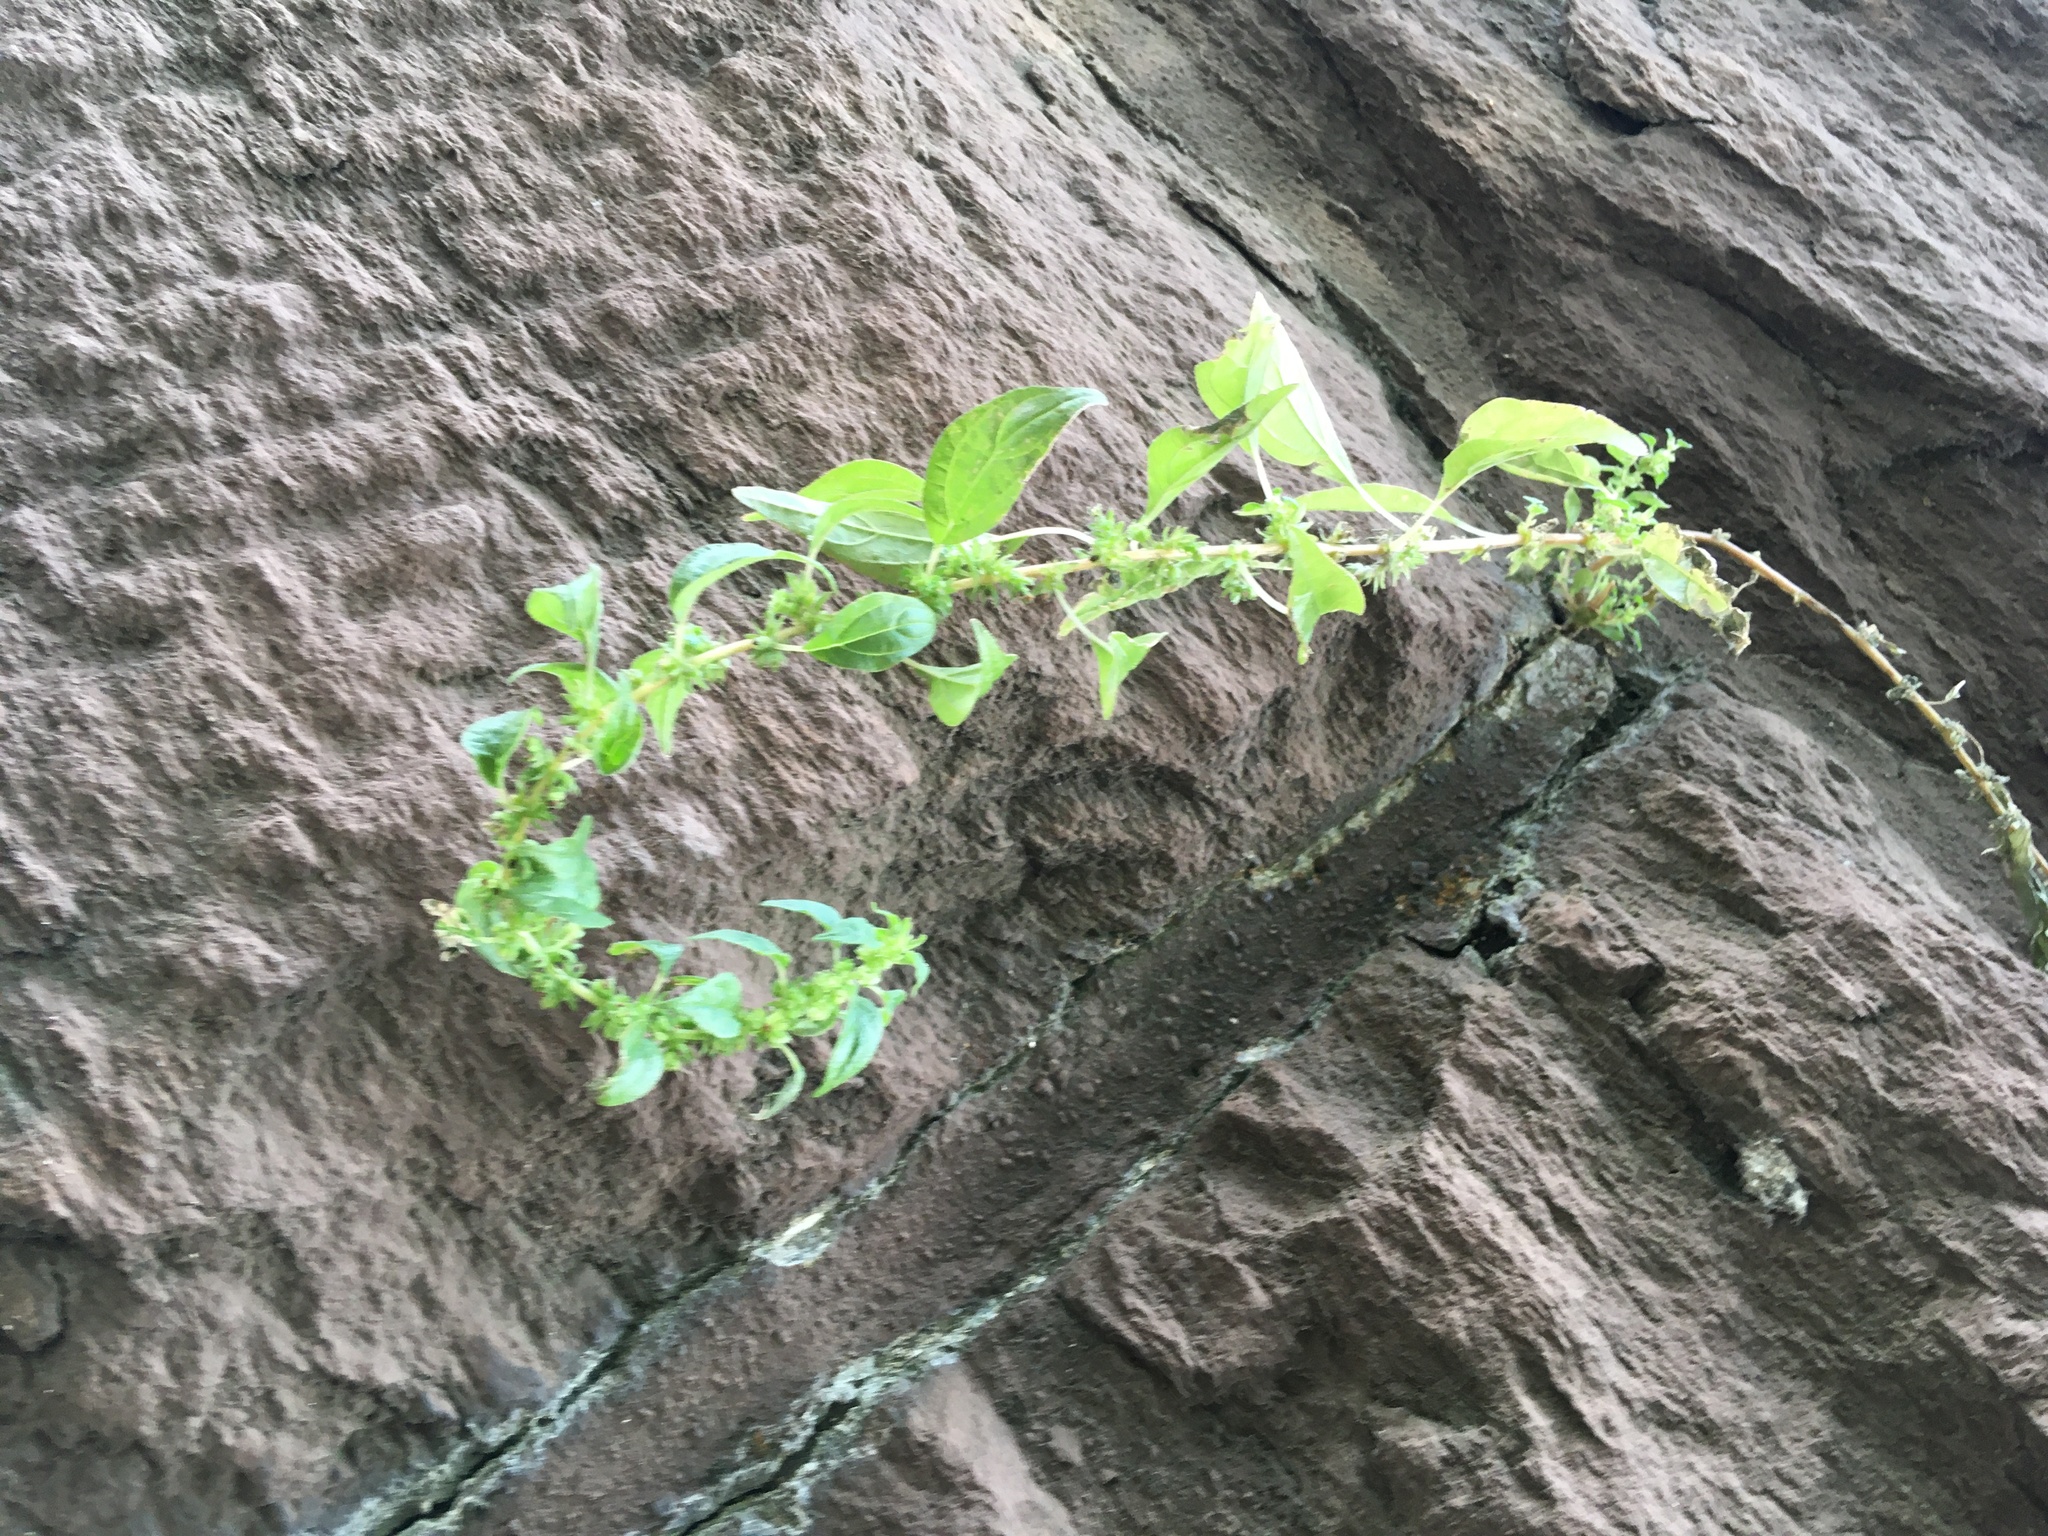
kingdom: Plantae
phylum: Tracheophyta
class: Magnoliopsida
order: Rosales
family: Urticaceae
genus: Parietaria
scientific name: Parietaria pensylvanica
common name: Pennsylvania pellitory
